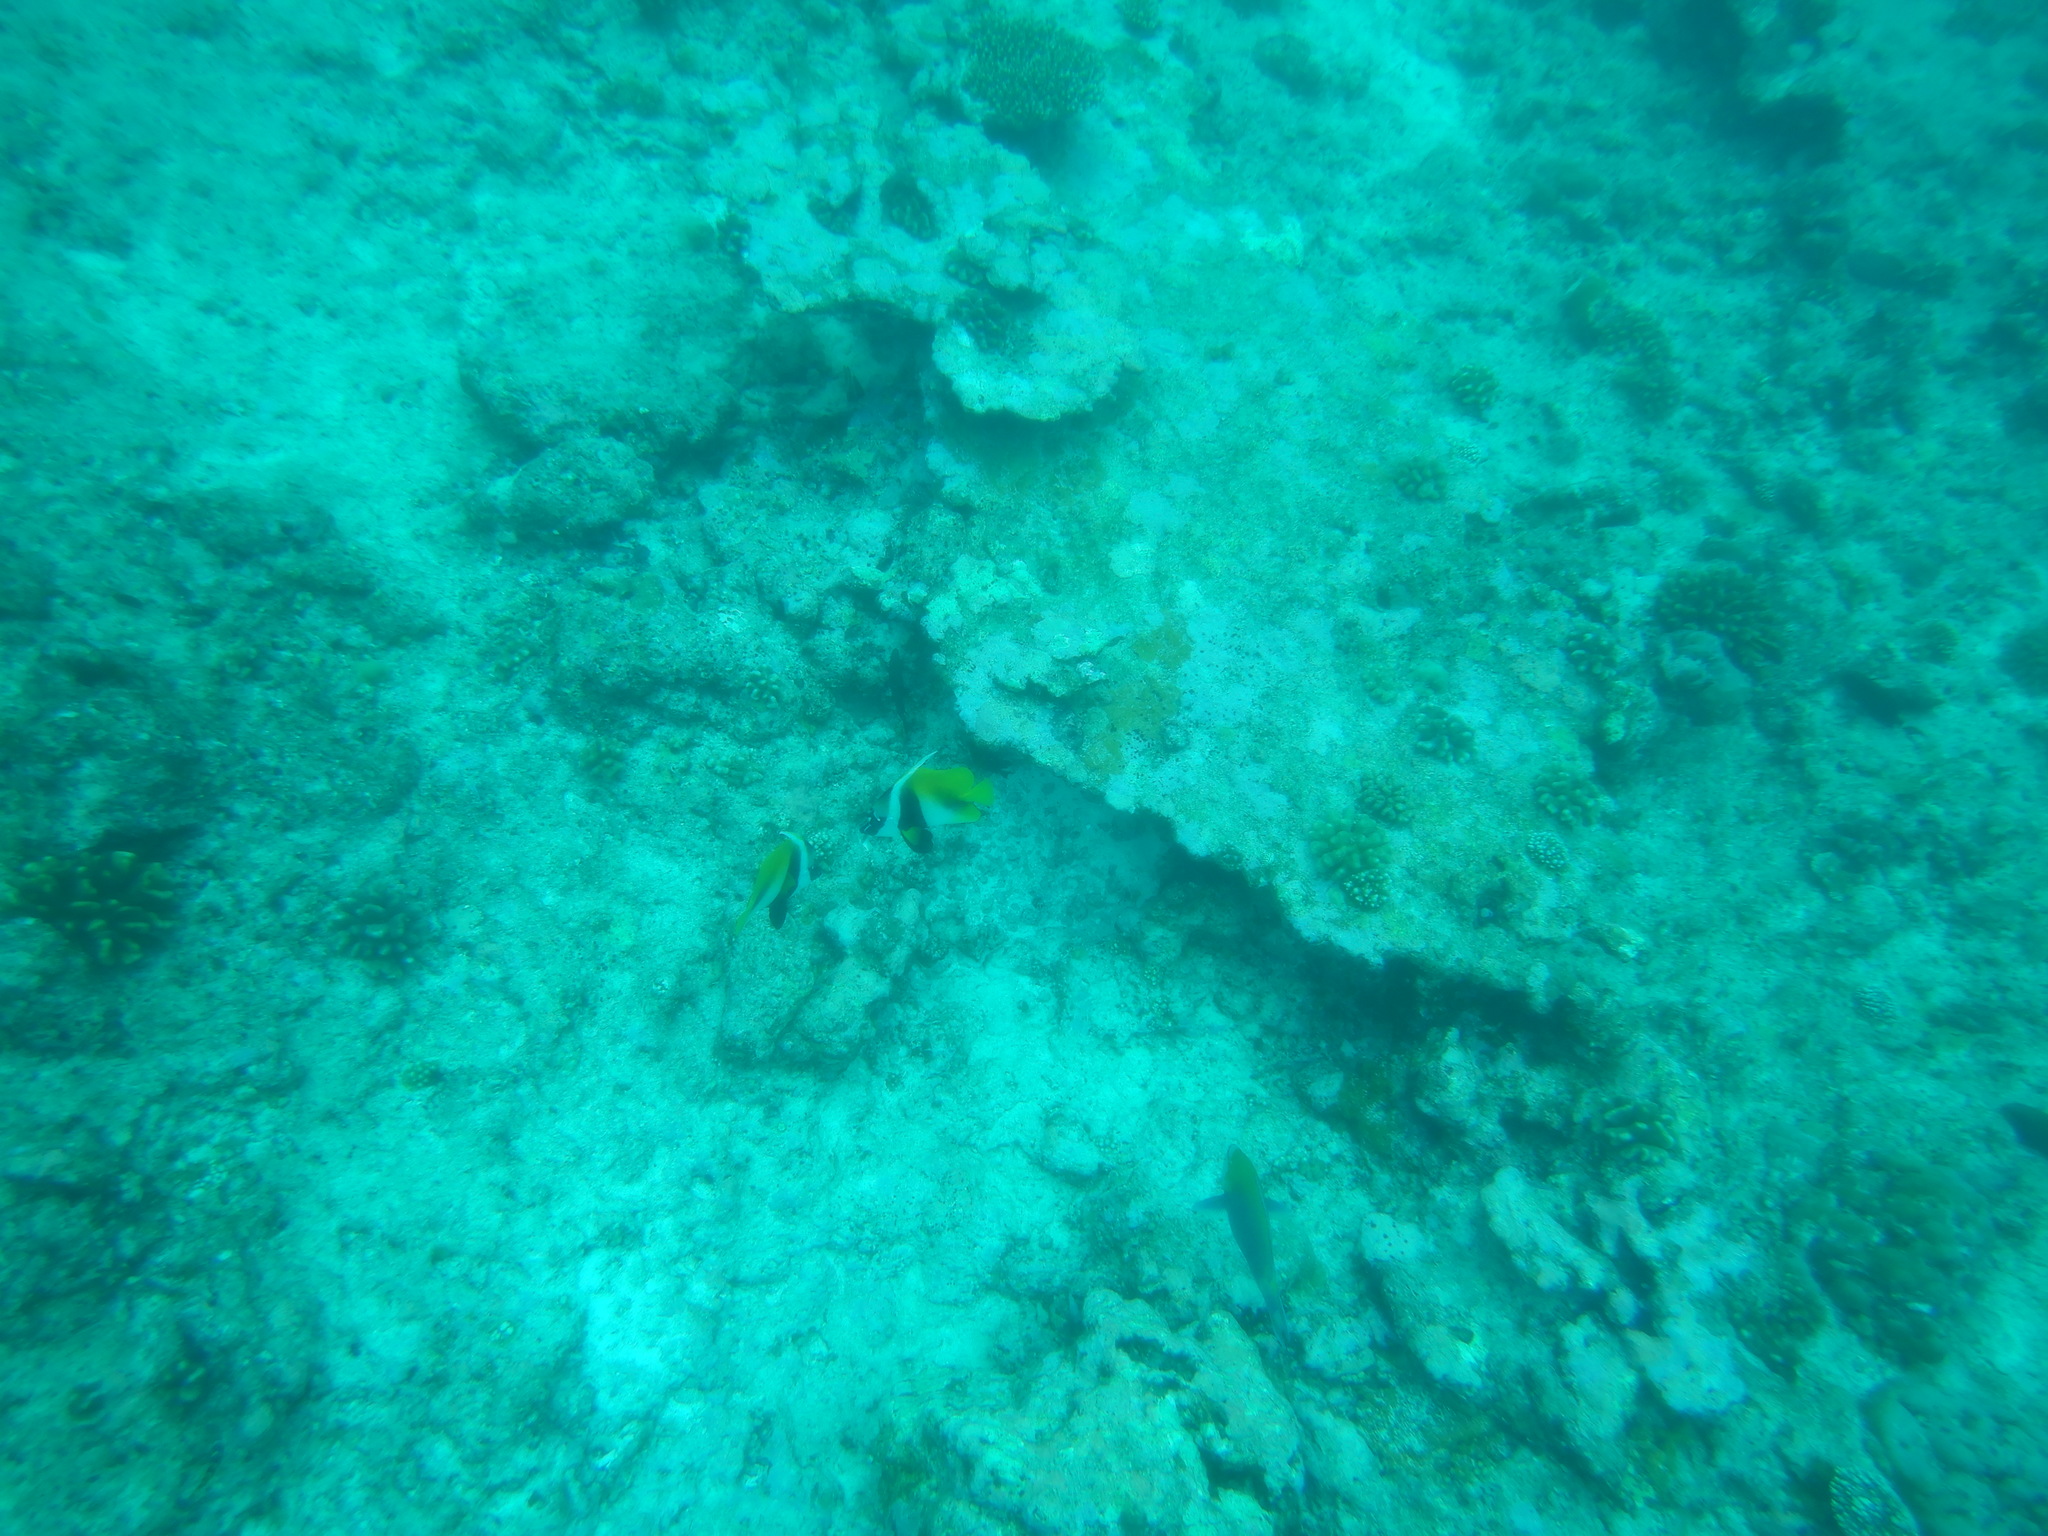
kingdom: Animalia
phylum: Chordata
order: Perciformes
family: Chaetodontidae
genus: Heniochus
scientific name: Heniochus monoceros
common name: Masked bannerfish
